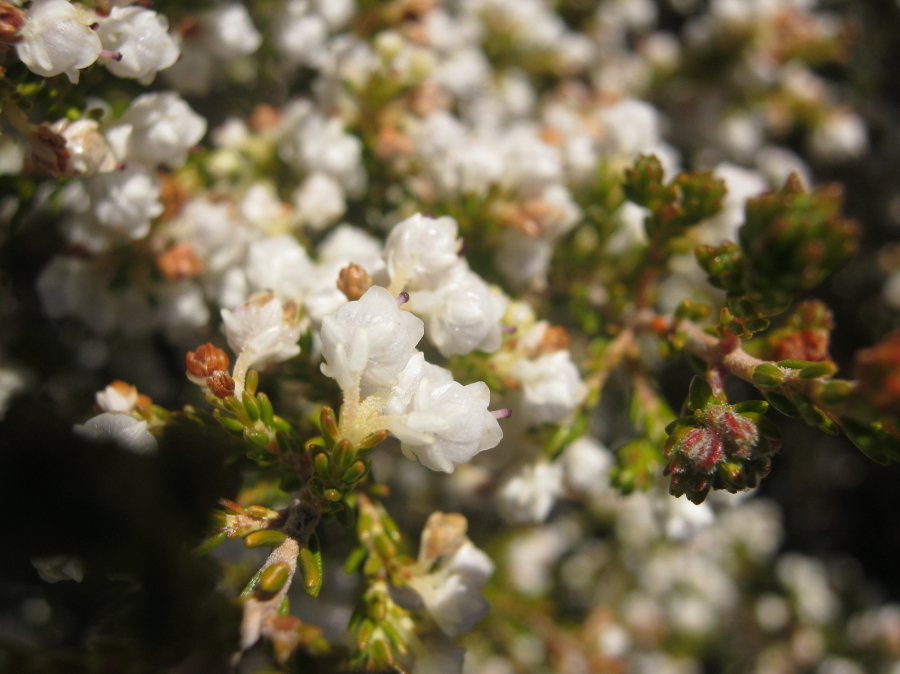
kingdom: Plantae
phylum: Tracheophyta
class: Magnoliopsida
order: Ericales
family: Ericaceae
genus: Erica
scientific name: Erica syngenesia
